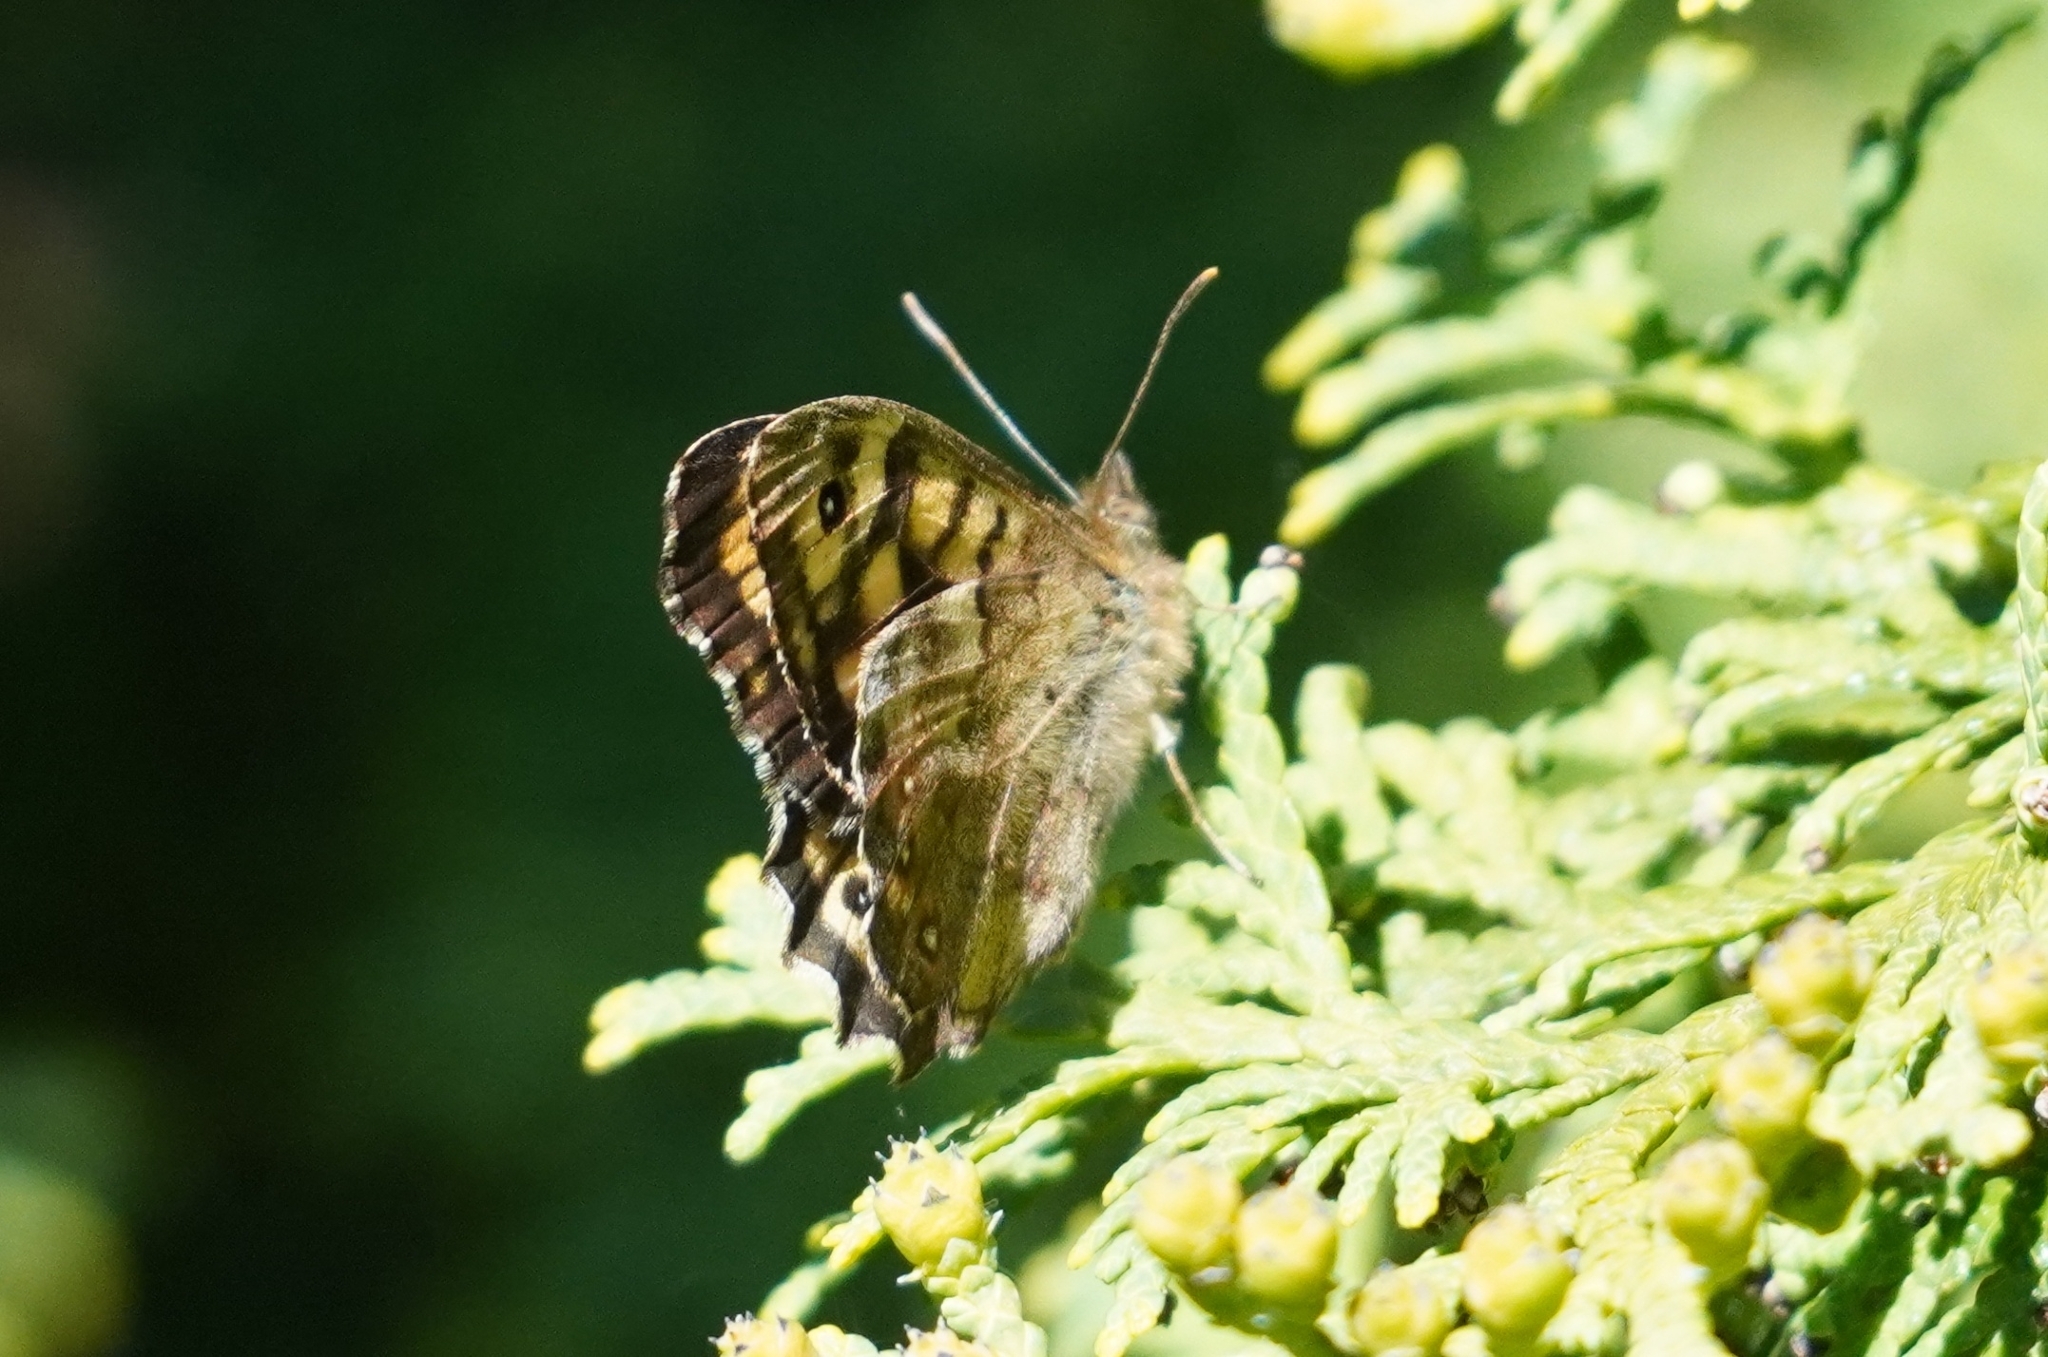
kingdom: Animalia
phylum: Arthropoda
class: Insecta
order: Lepidoptera
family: Nymphalidae
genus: Pararge
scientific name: Pararge aegeria
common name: Speckled wood
